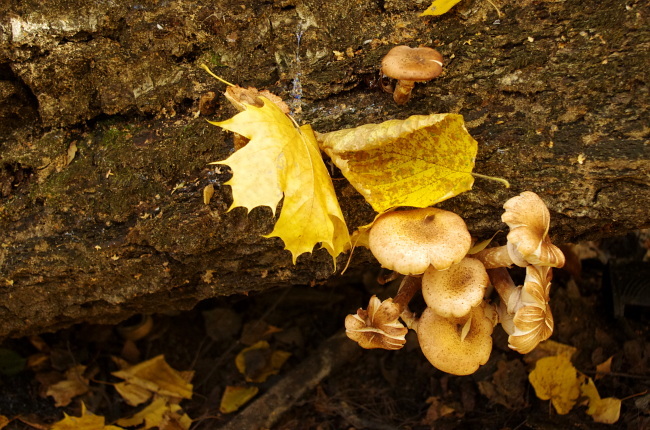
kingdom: Fungi
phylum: Basidiomycota
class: Agaricomycetes
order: Agaricales
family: Physalacriaceae
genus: Armillaria
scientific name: Armillaria borealis
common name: Northern honey fungus
